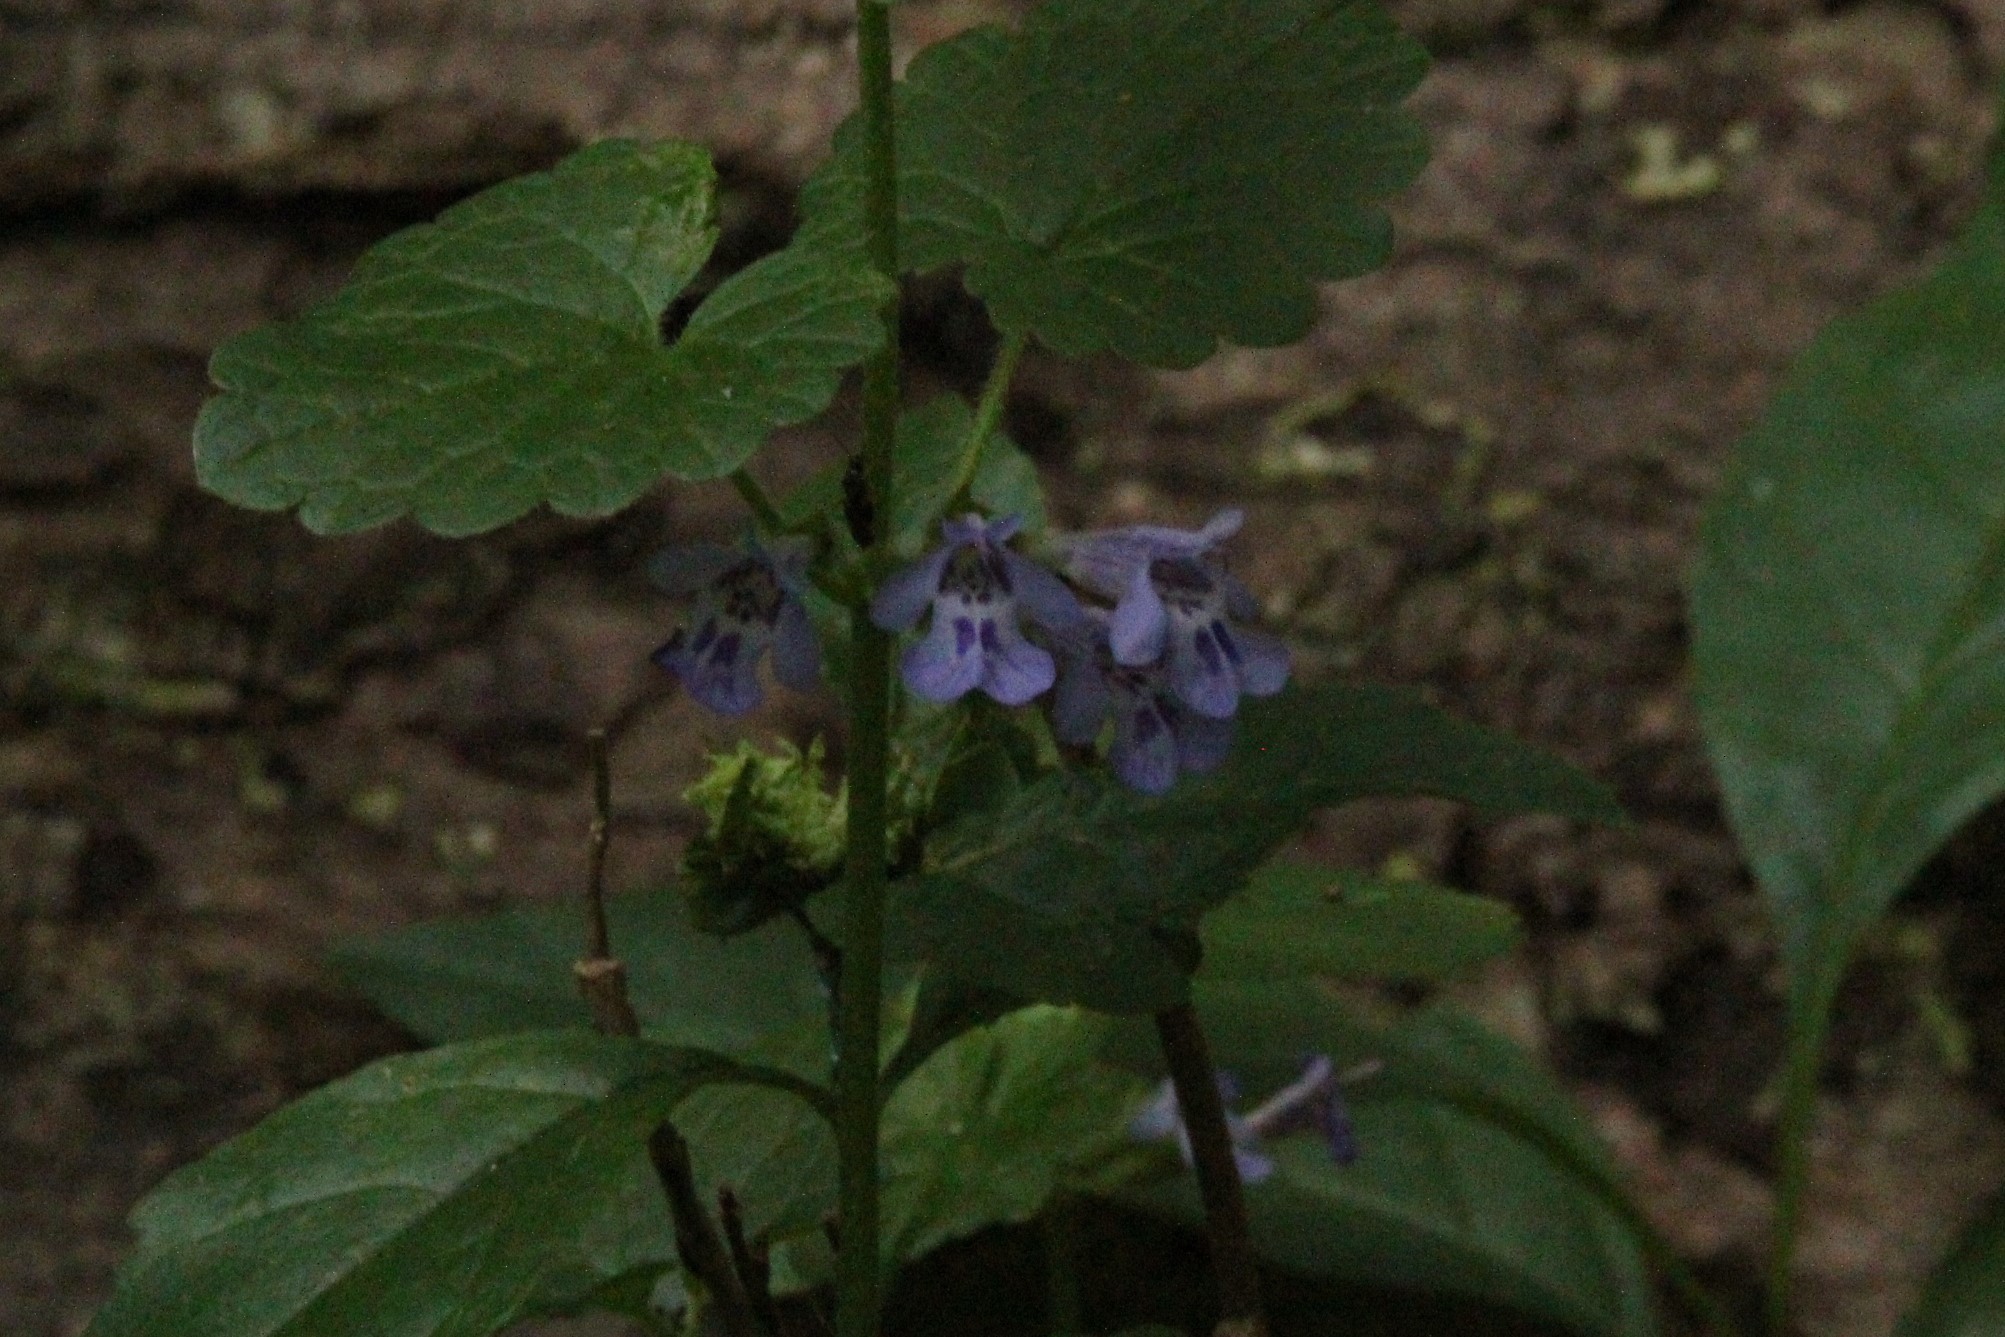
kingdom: Plantae
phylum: Tracheophyta
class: Magnoliopsida
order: Lamiales
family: Lamiaceae
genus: Glechoma
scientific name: Glechoma hederacea
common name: Ground ivy
